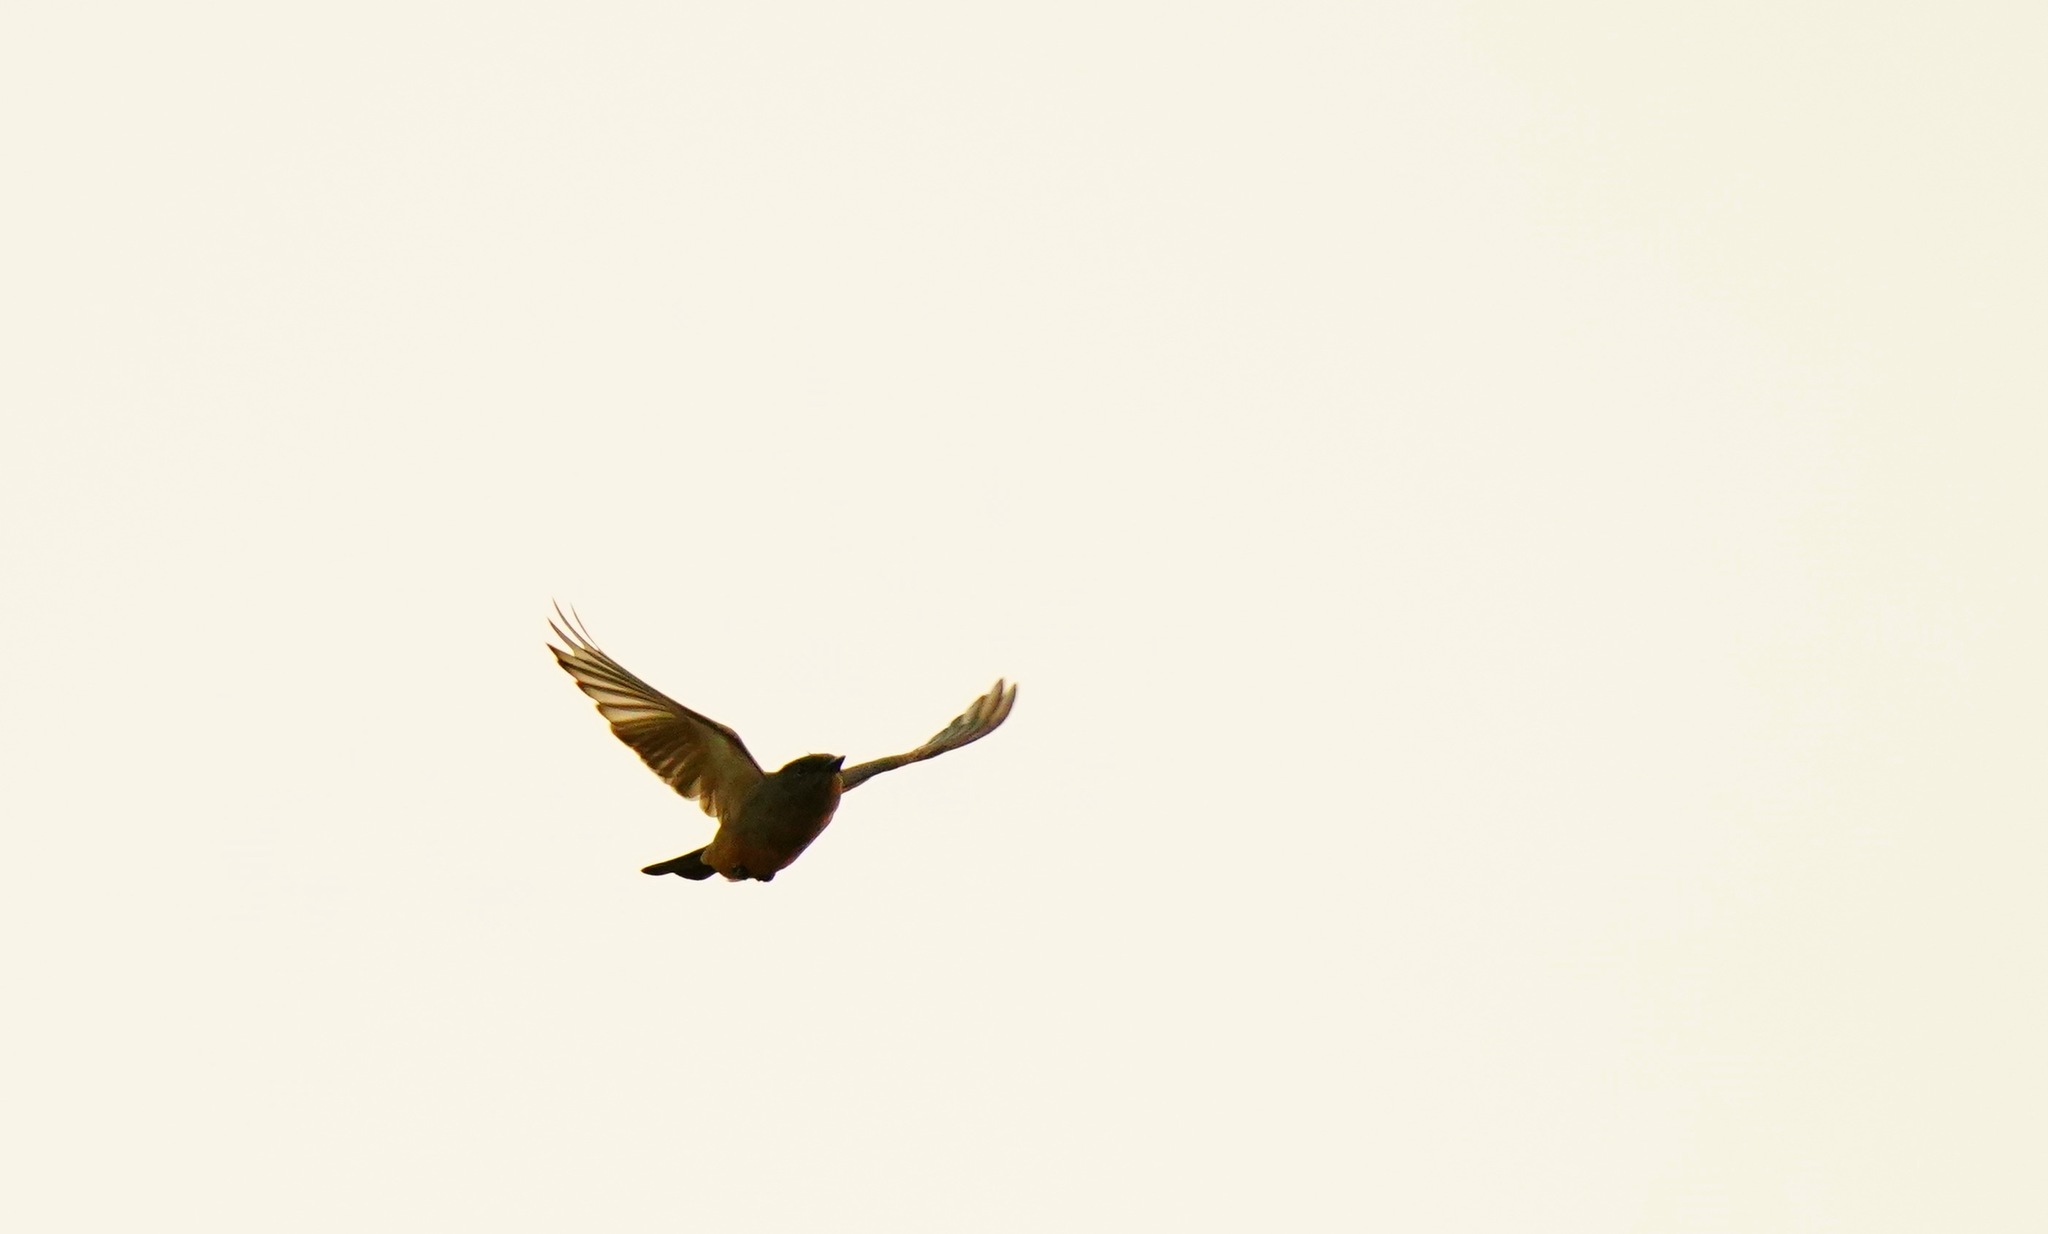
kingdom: Animalia
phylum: Chordata
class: Aves
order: Passeriformes
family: Tyrannidae
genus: Sayornis
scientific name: Sayornis saya
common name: Say's phoebe
